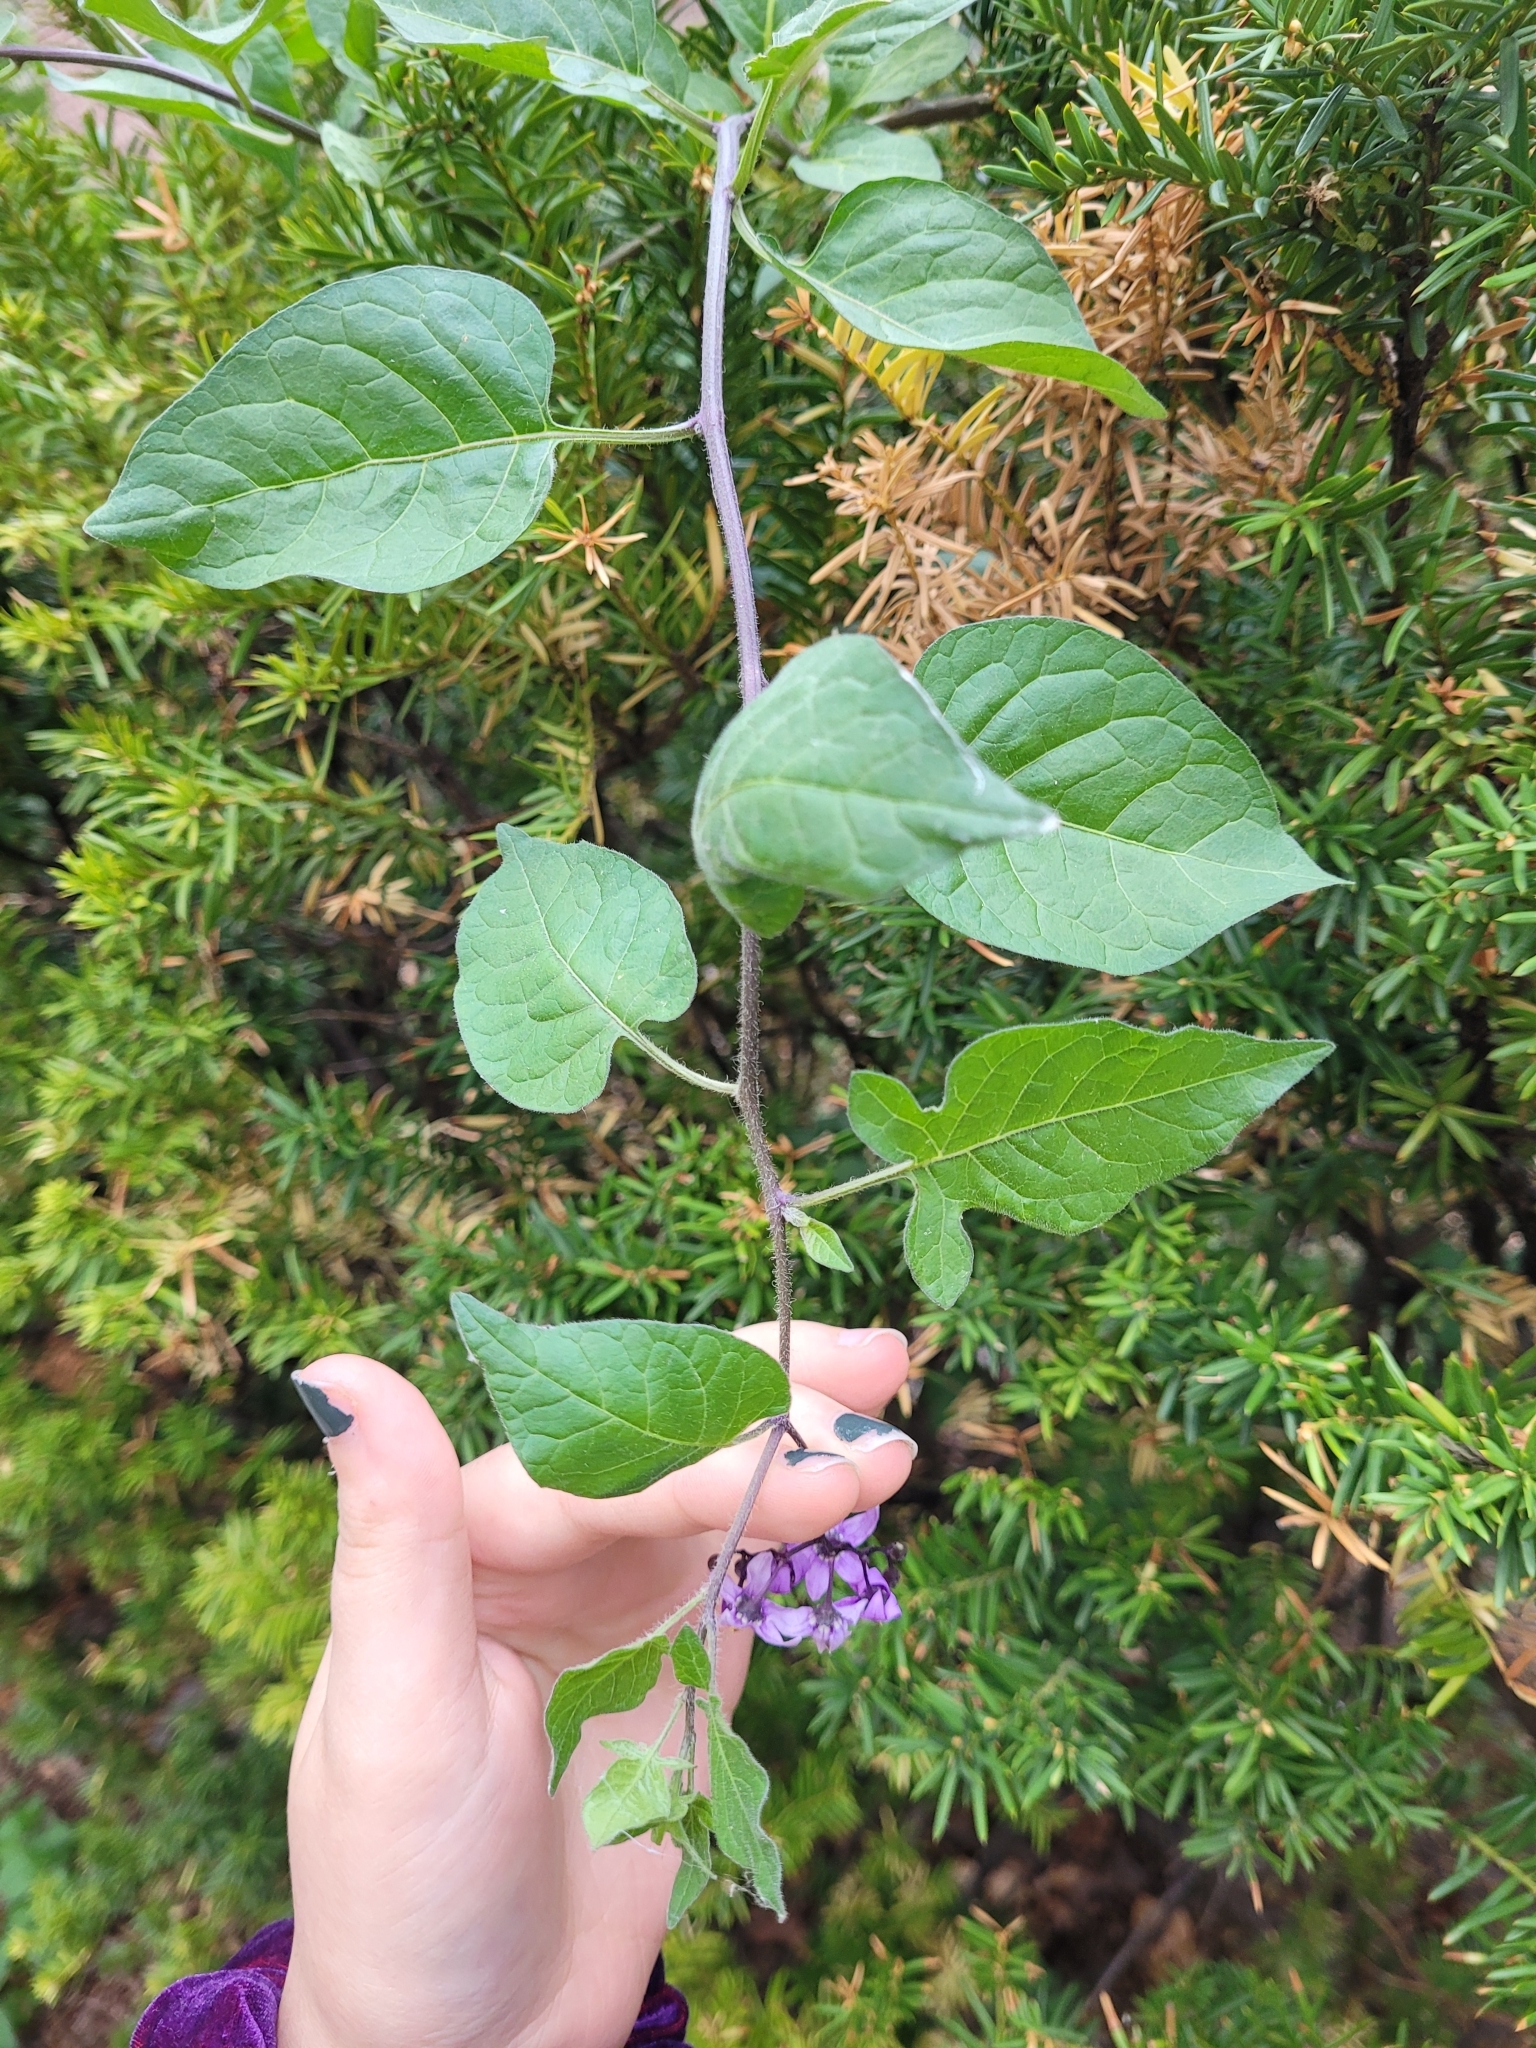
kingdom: Plantae
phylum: Tracheophyta
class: Magnoliopsida
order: Solanales
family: Solanaceae
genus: Solanum
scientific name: Solanum dulcamara
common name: Climbing nightshade
